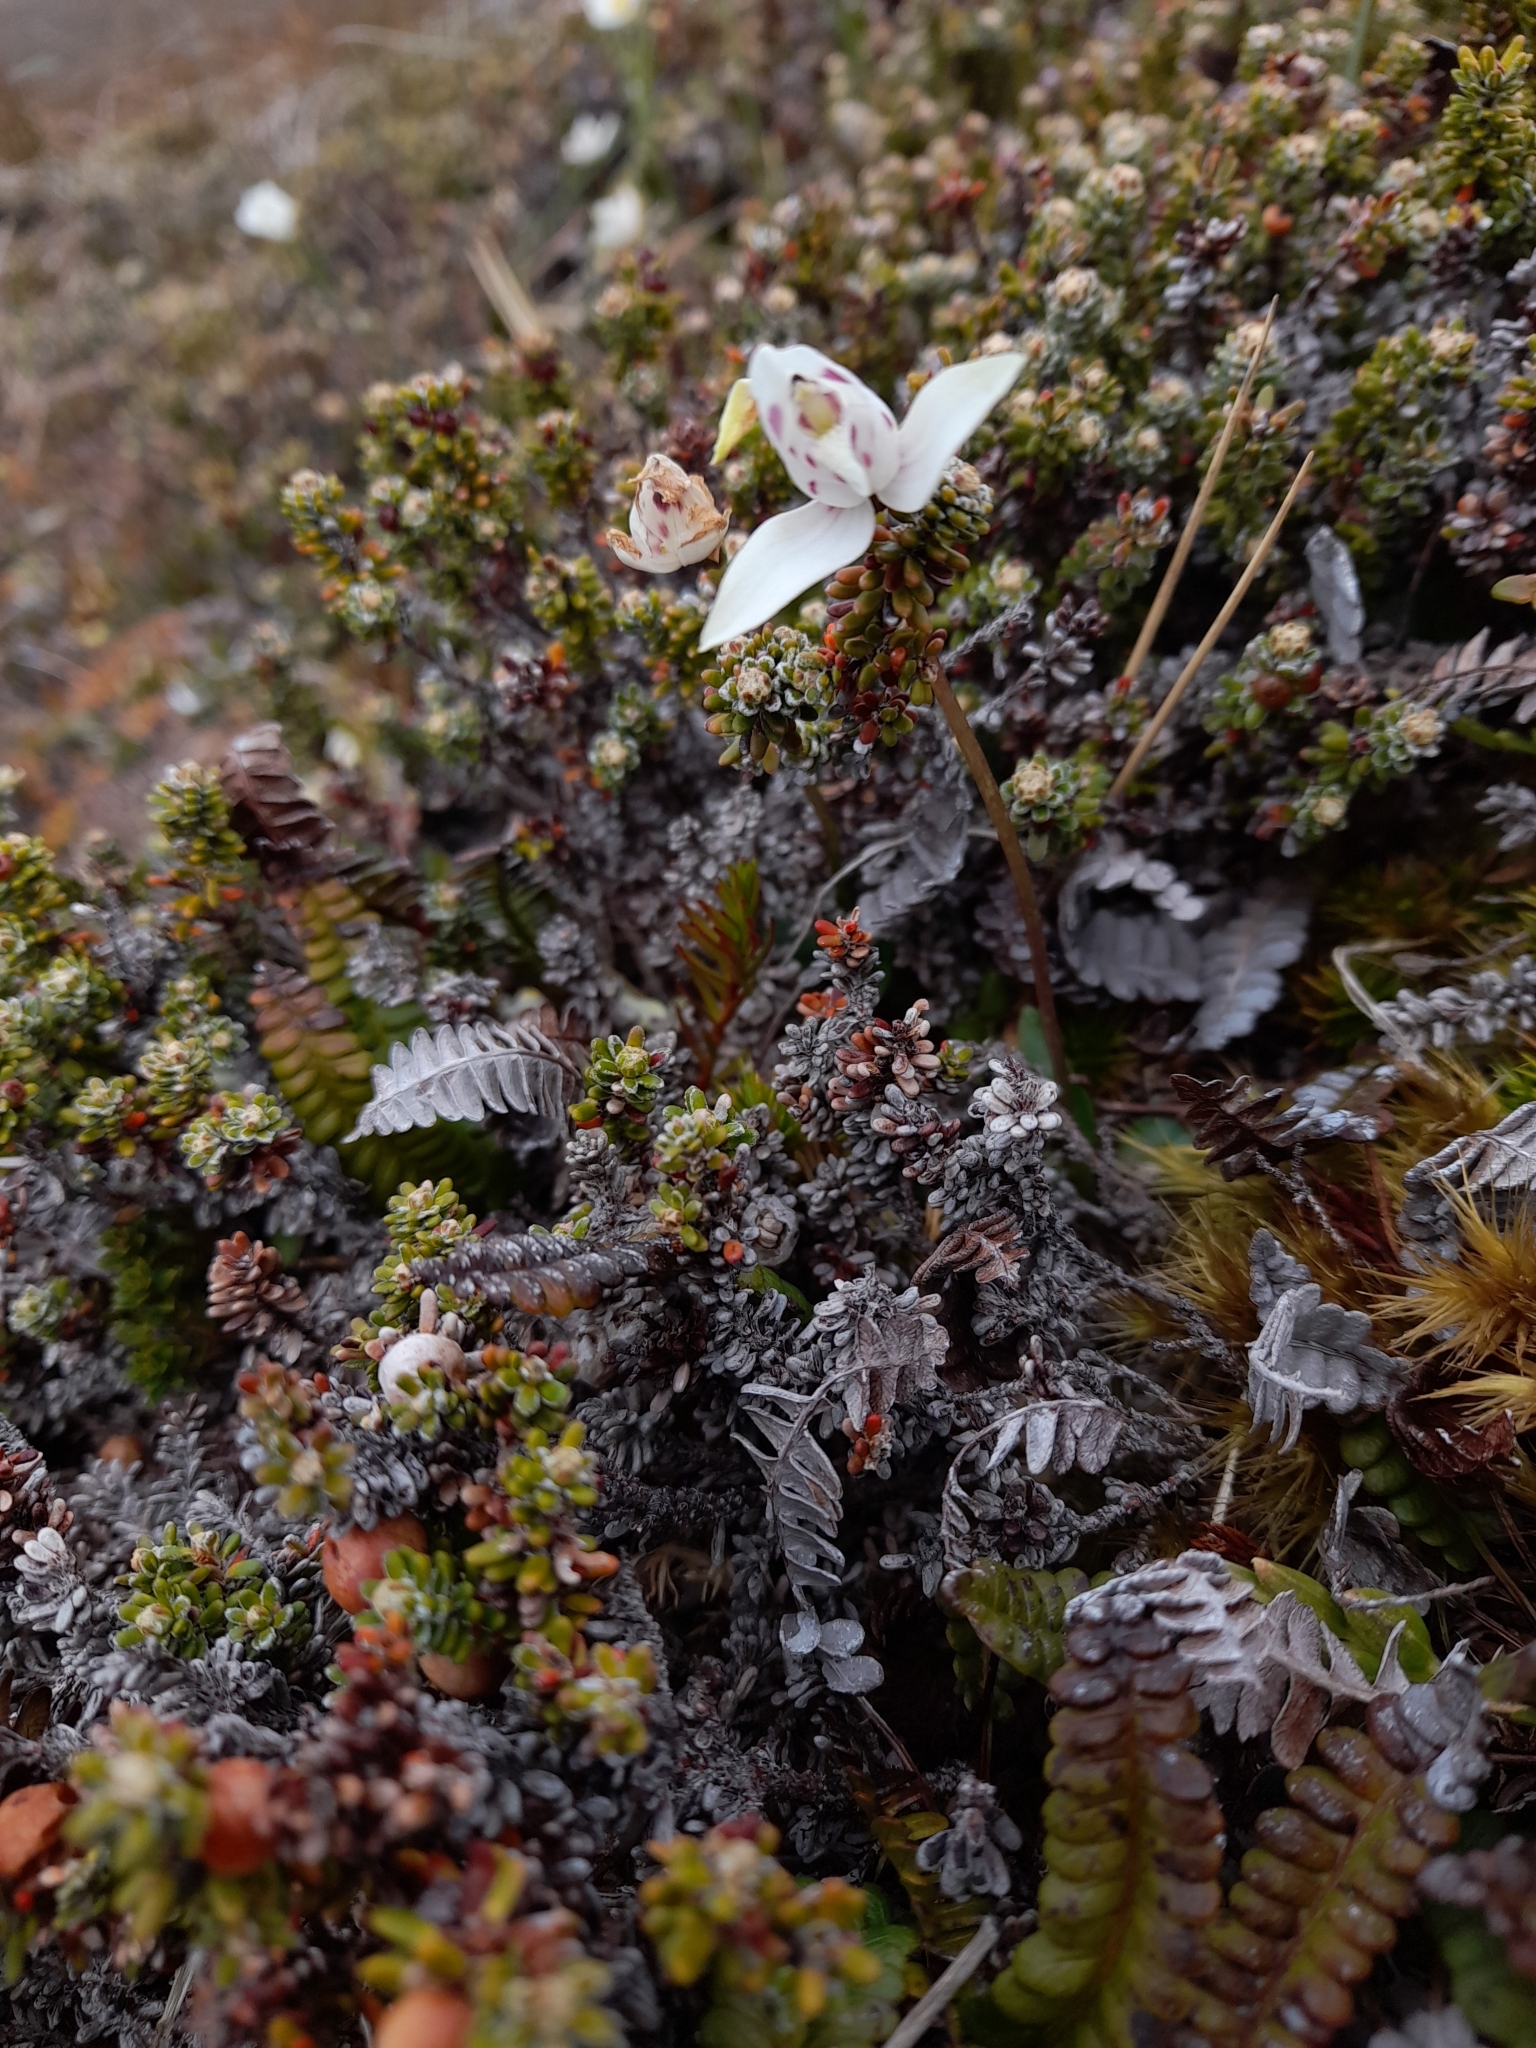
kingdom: Plantae
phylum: Tracheophyta
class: Liliopsida
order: Asparagales
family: Orchidaceae
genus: Codonorchis
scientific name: Codonorchis lessonii
